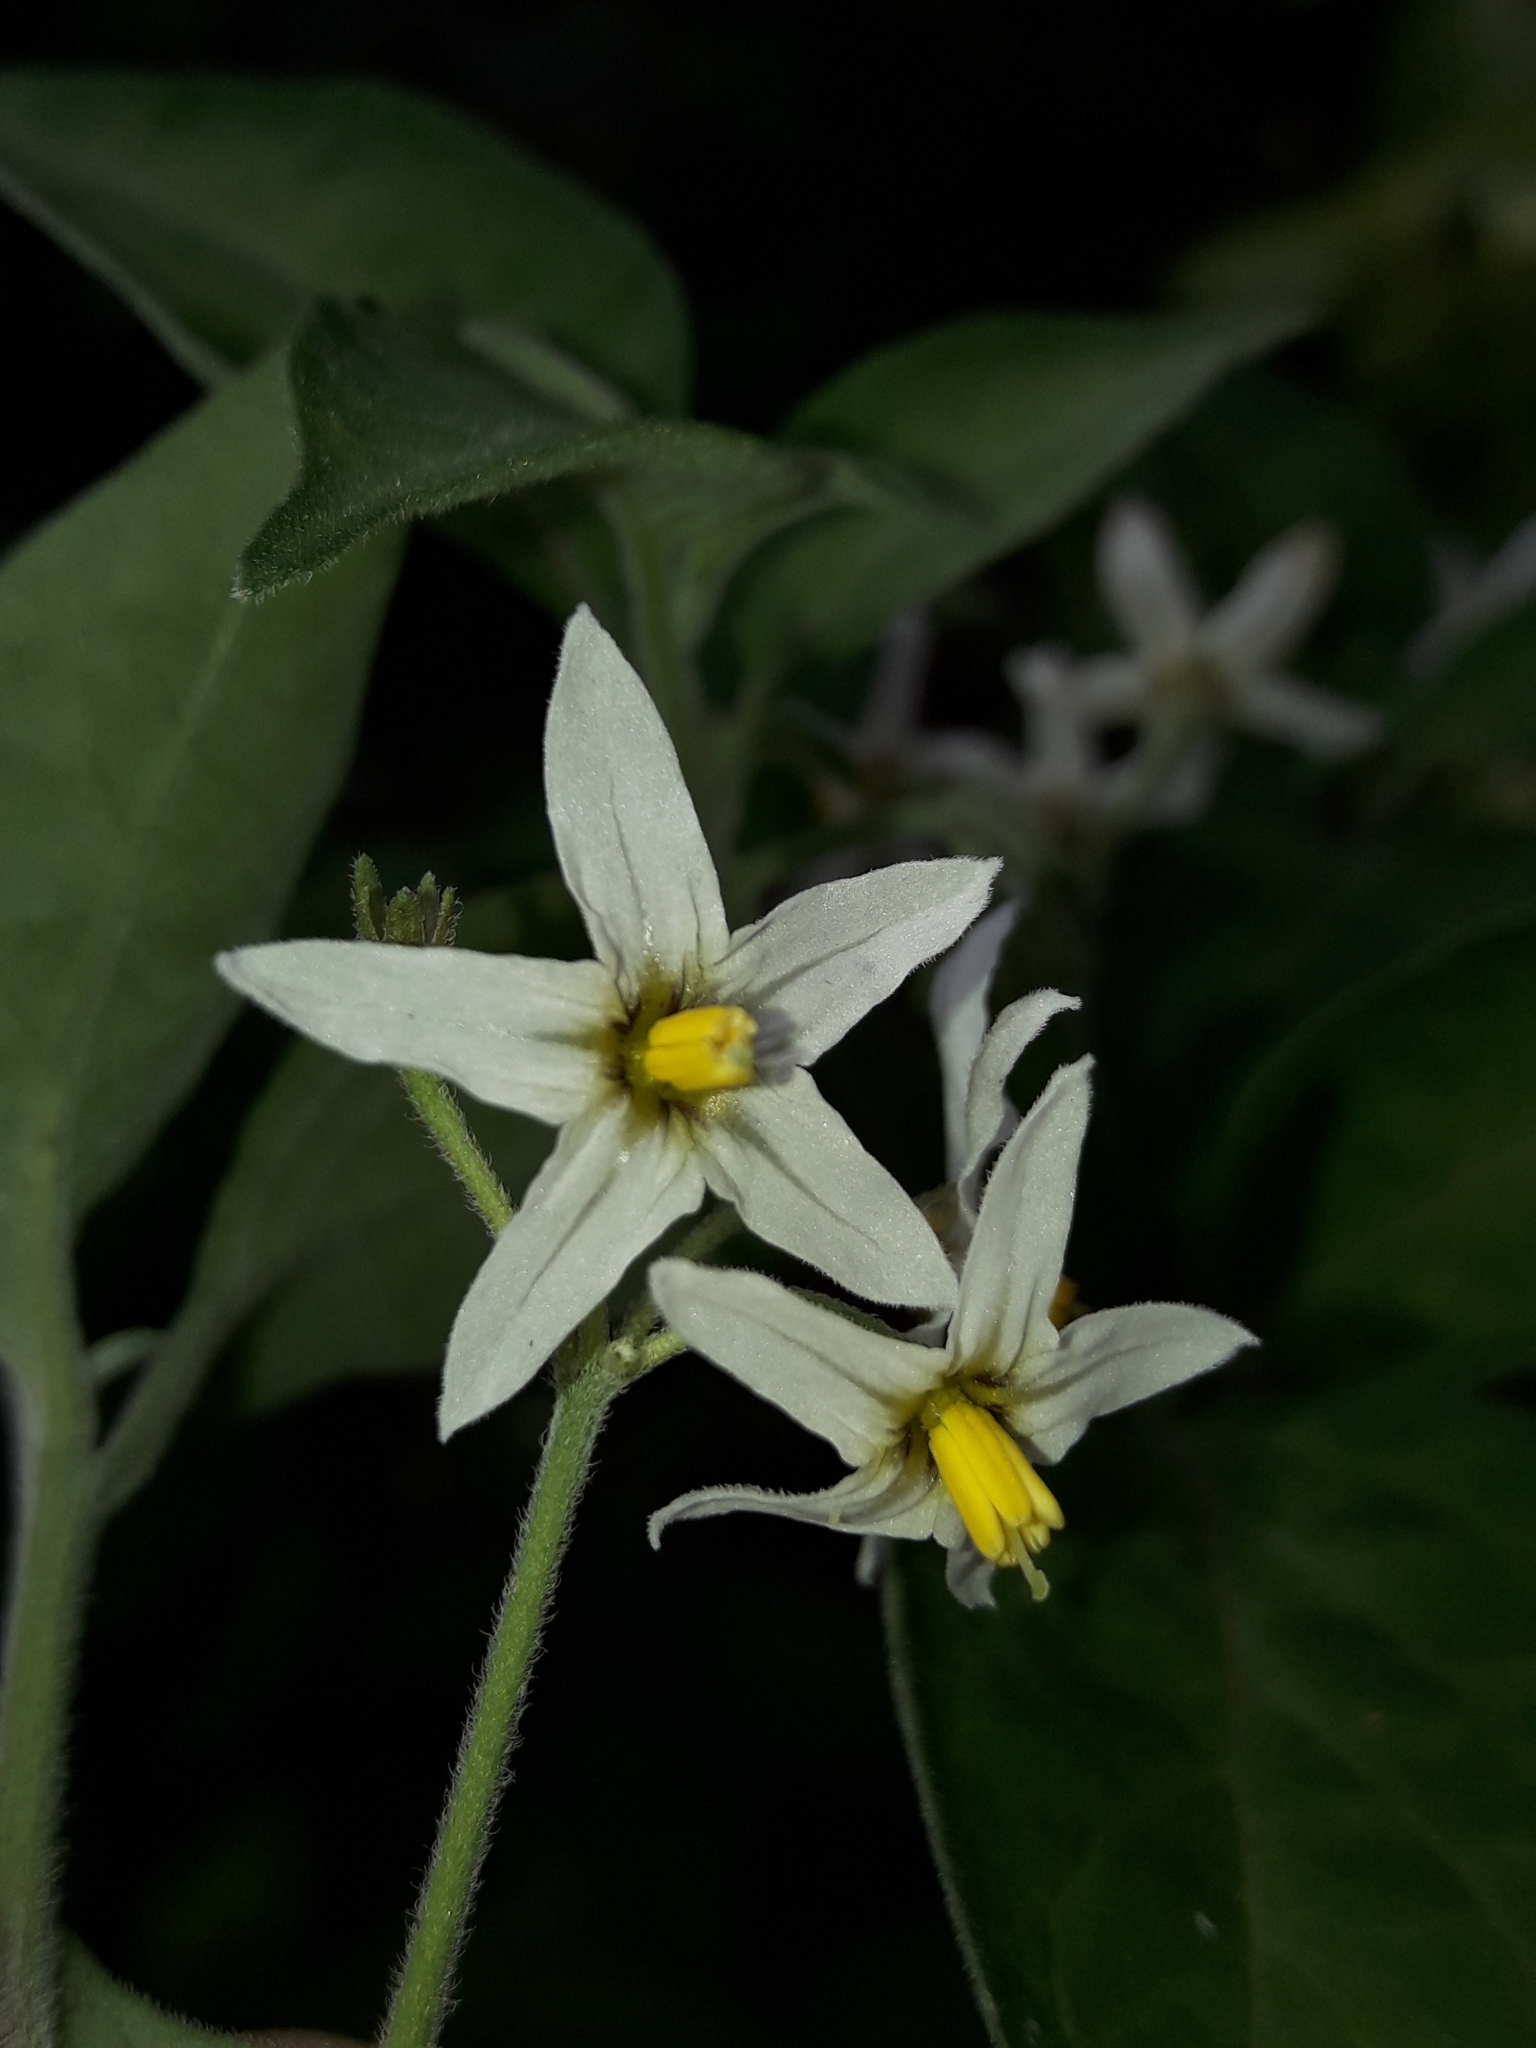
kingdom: Plantae
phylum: Tracheophyta
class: Magnoliopsida
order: Solanales
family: Solanaceae
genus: Solanum
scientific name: Solanum chenopodioides
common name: Tall nightshade
